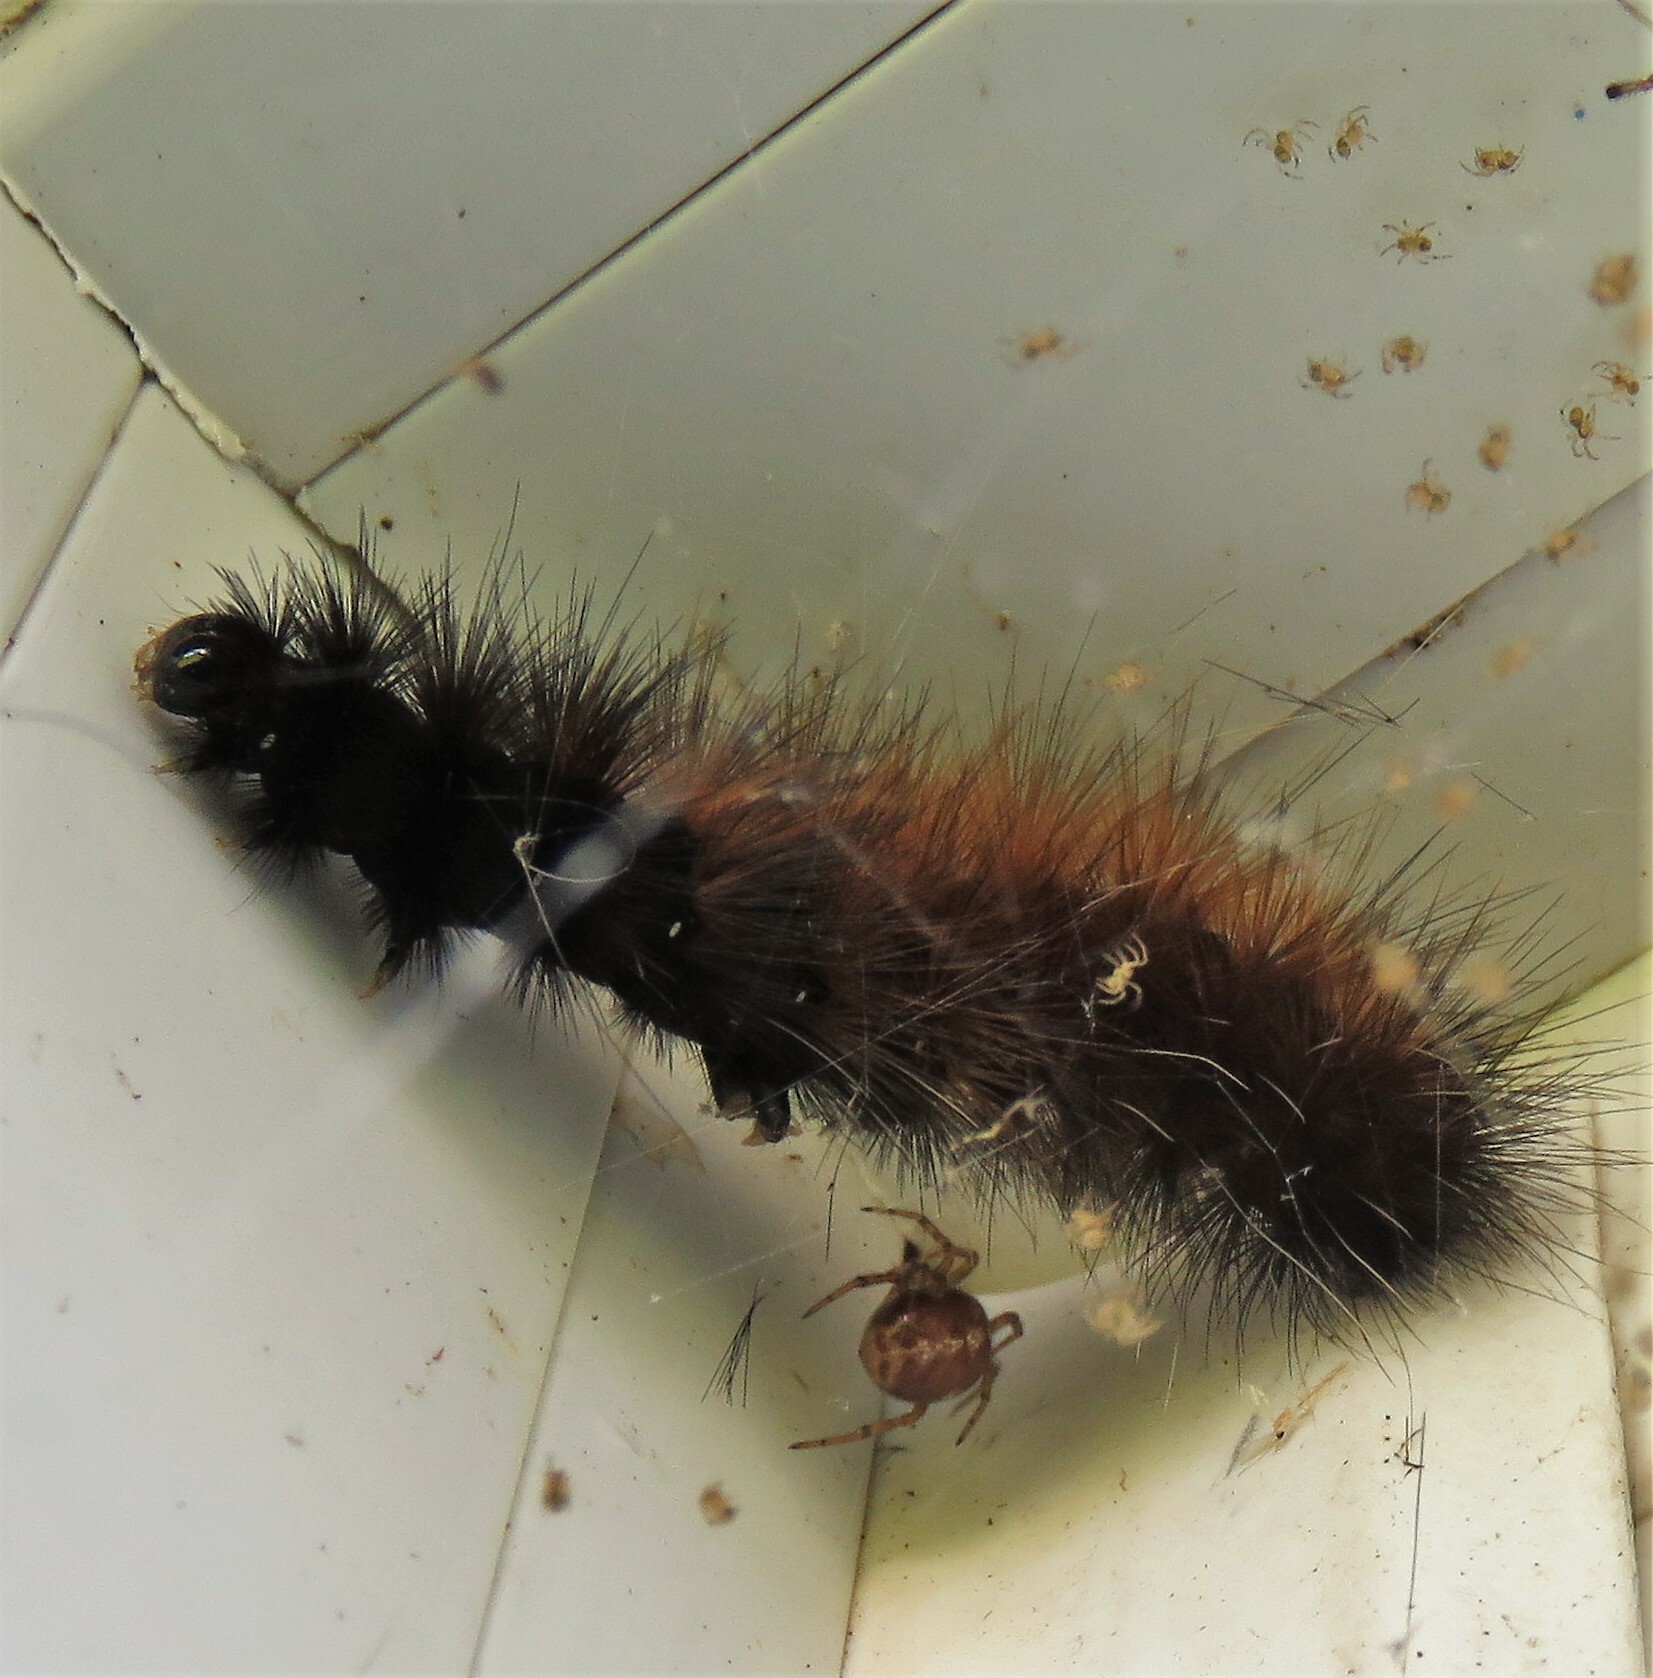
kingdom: Animalia
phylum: Arthropoda
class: Insecta
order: Lepidoptera
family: Erebidae
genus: Pyrrharctia
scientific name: Pyrrharctia isabella
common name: Isabella tiger moth
